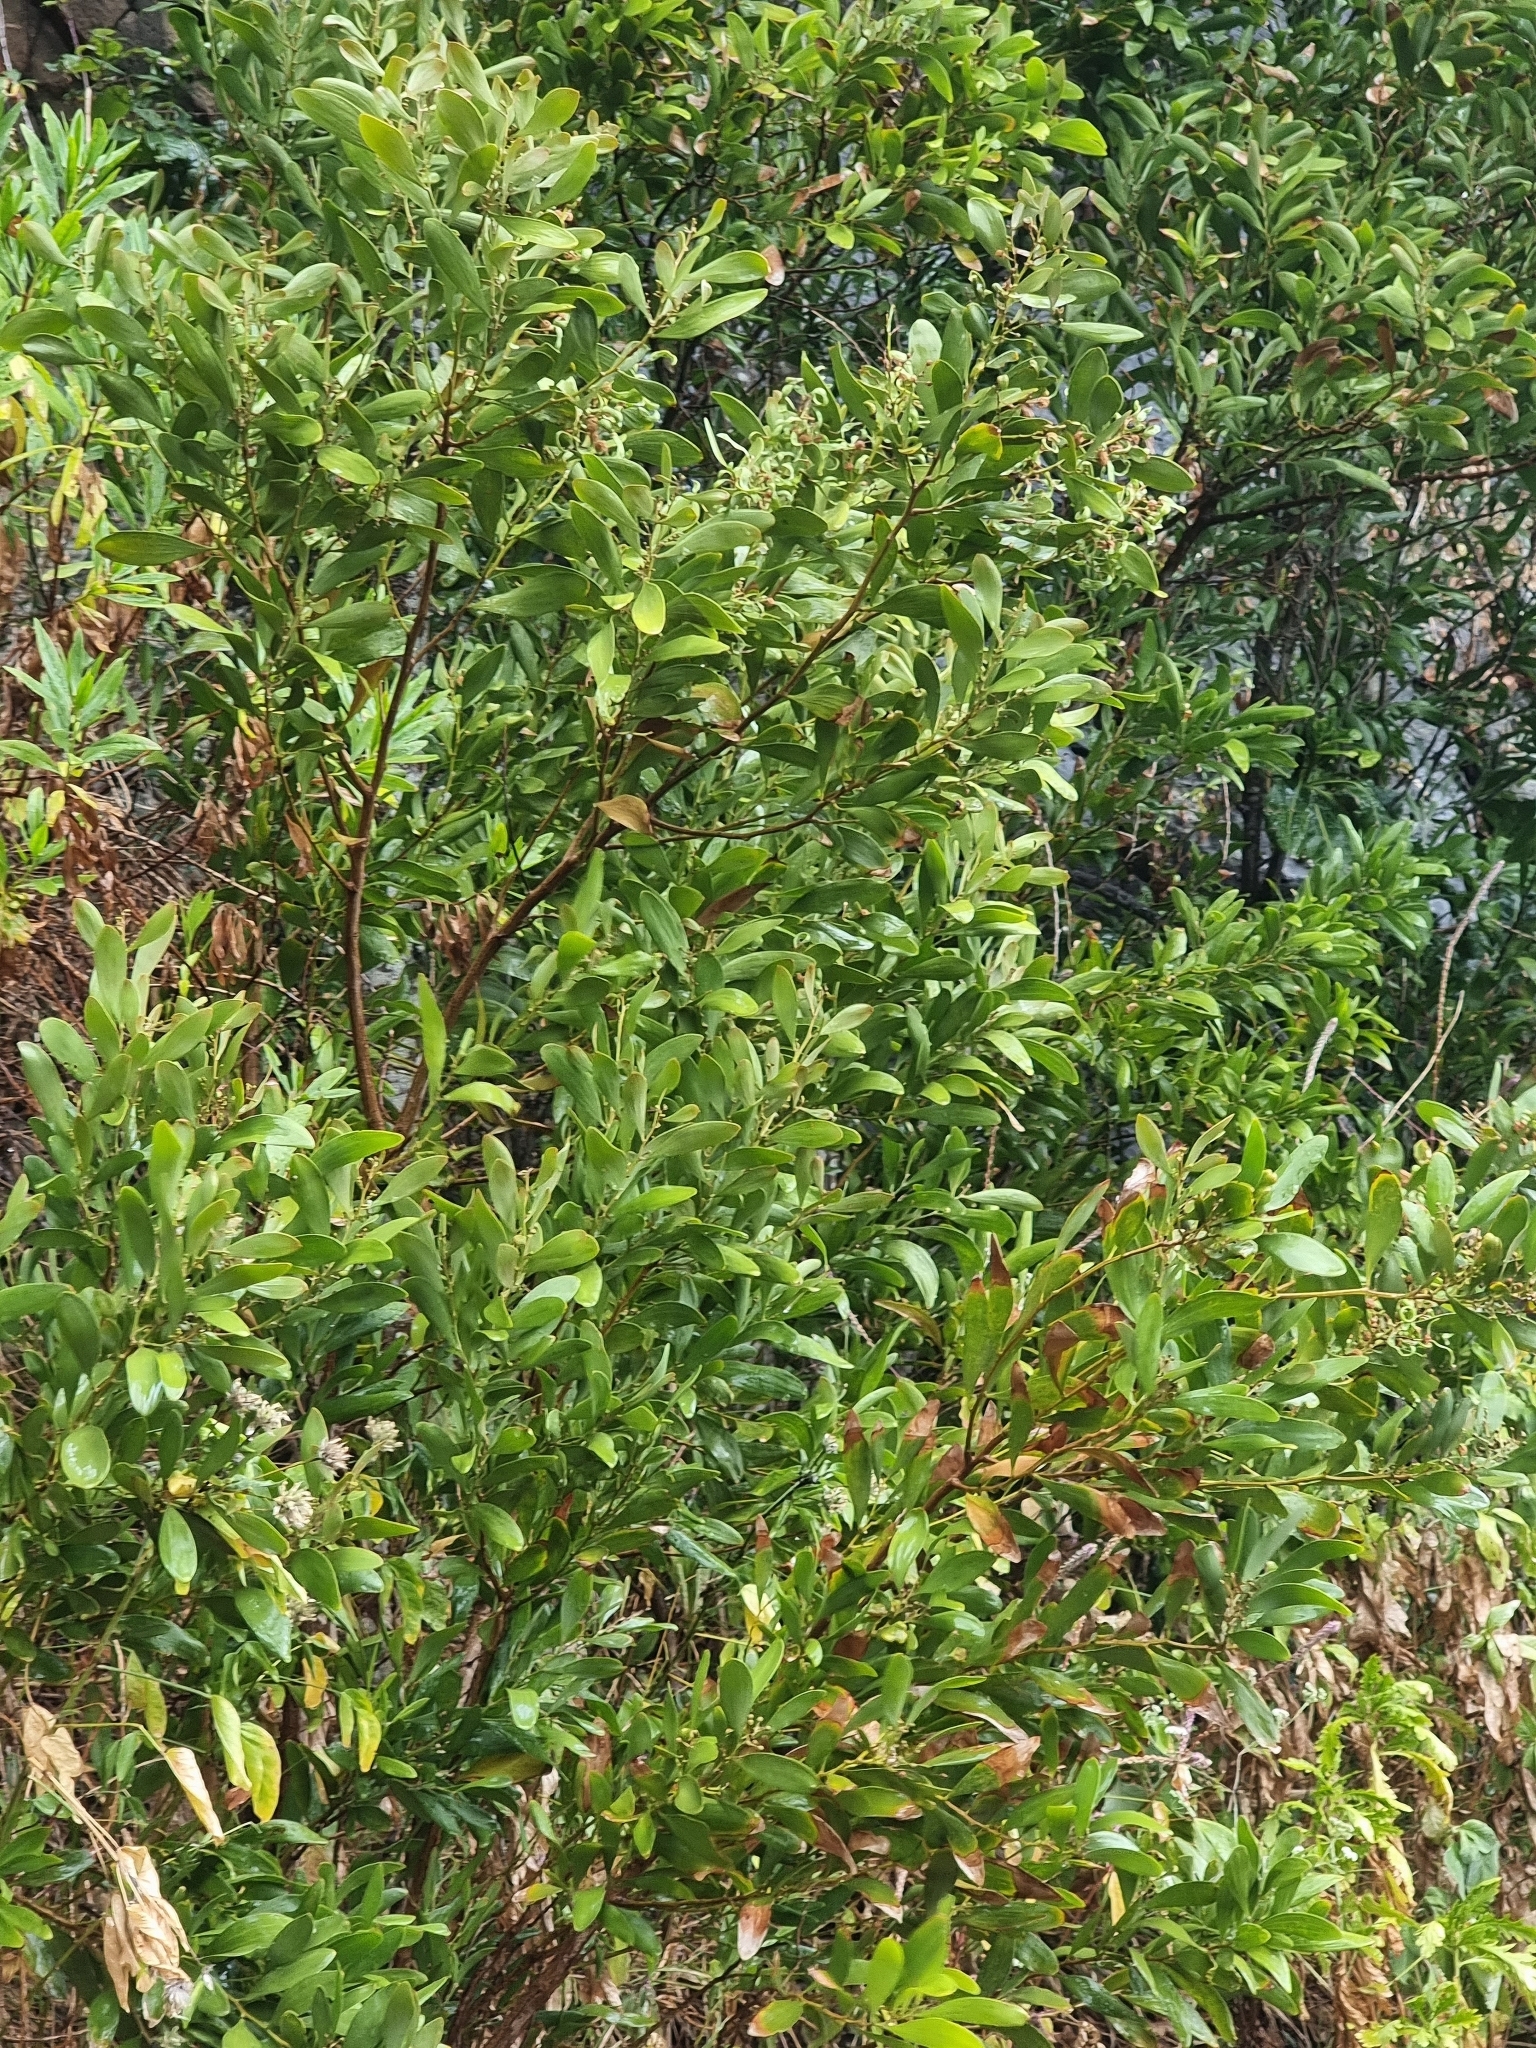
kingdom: Plantae
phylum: Tracheophyta
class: Magnoliopsida
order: Fabales
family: Fabaceae
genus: Acacia
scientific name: Acacia melanoxylon
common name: Blackwood
